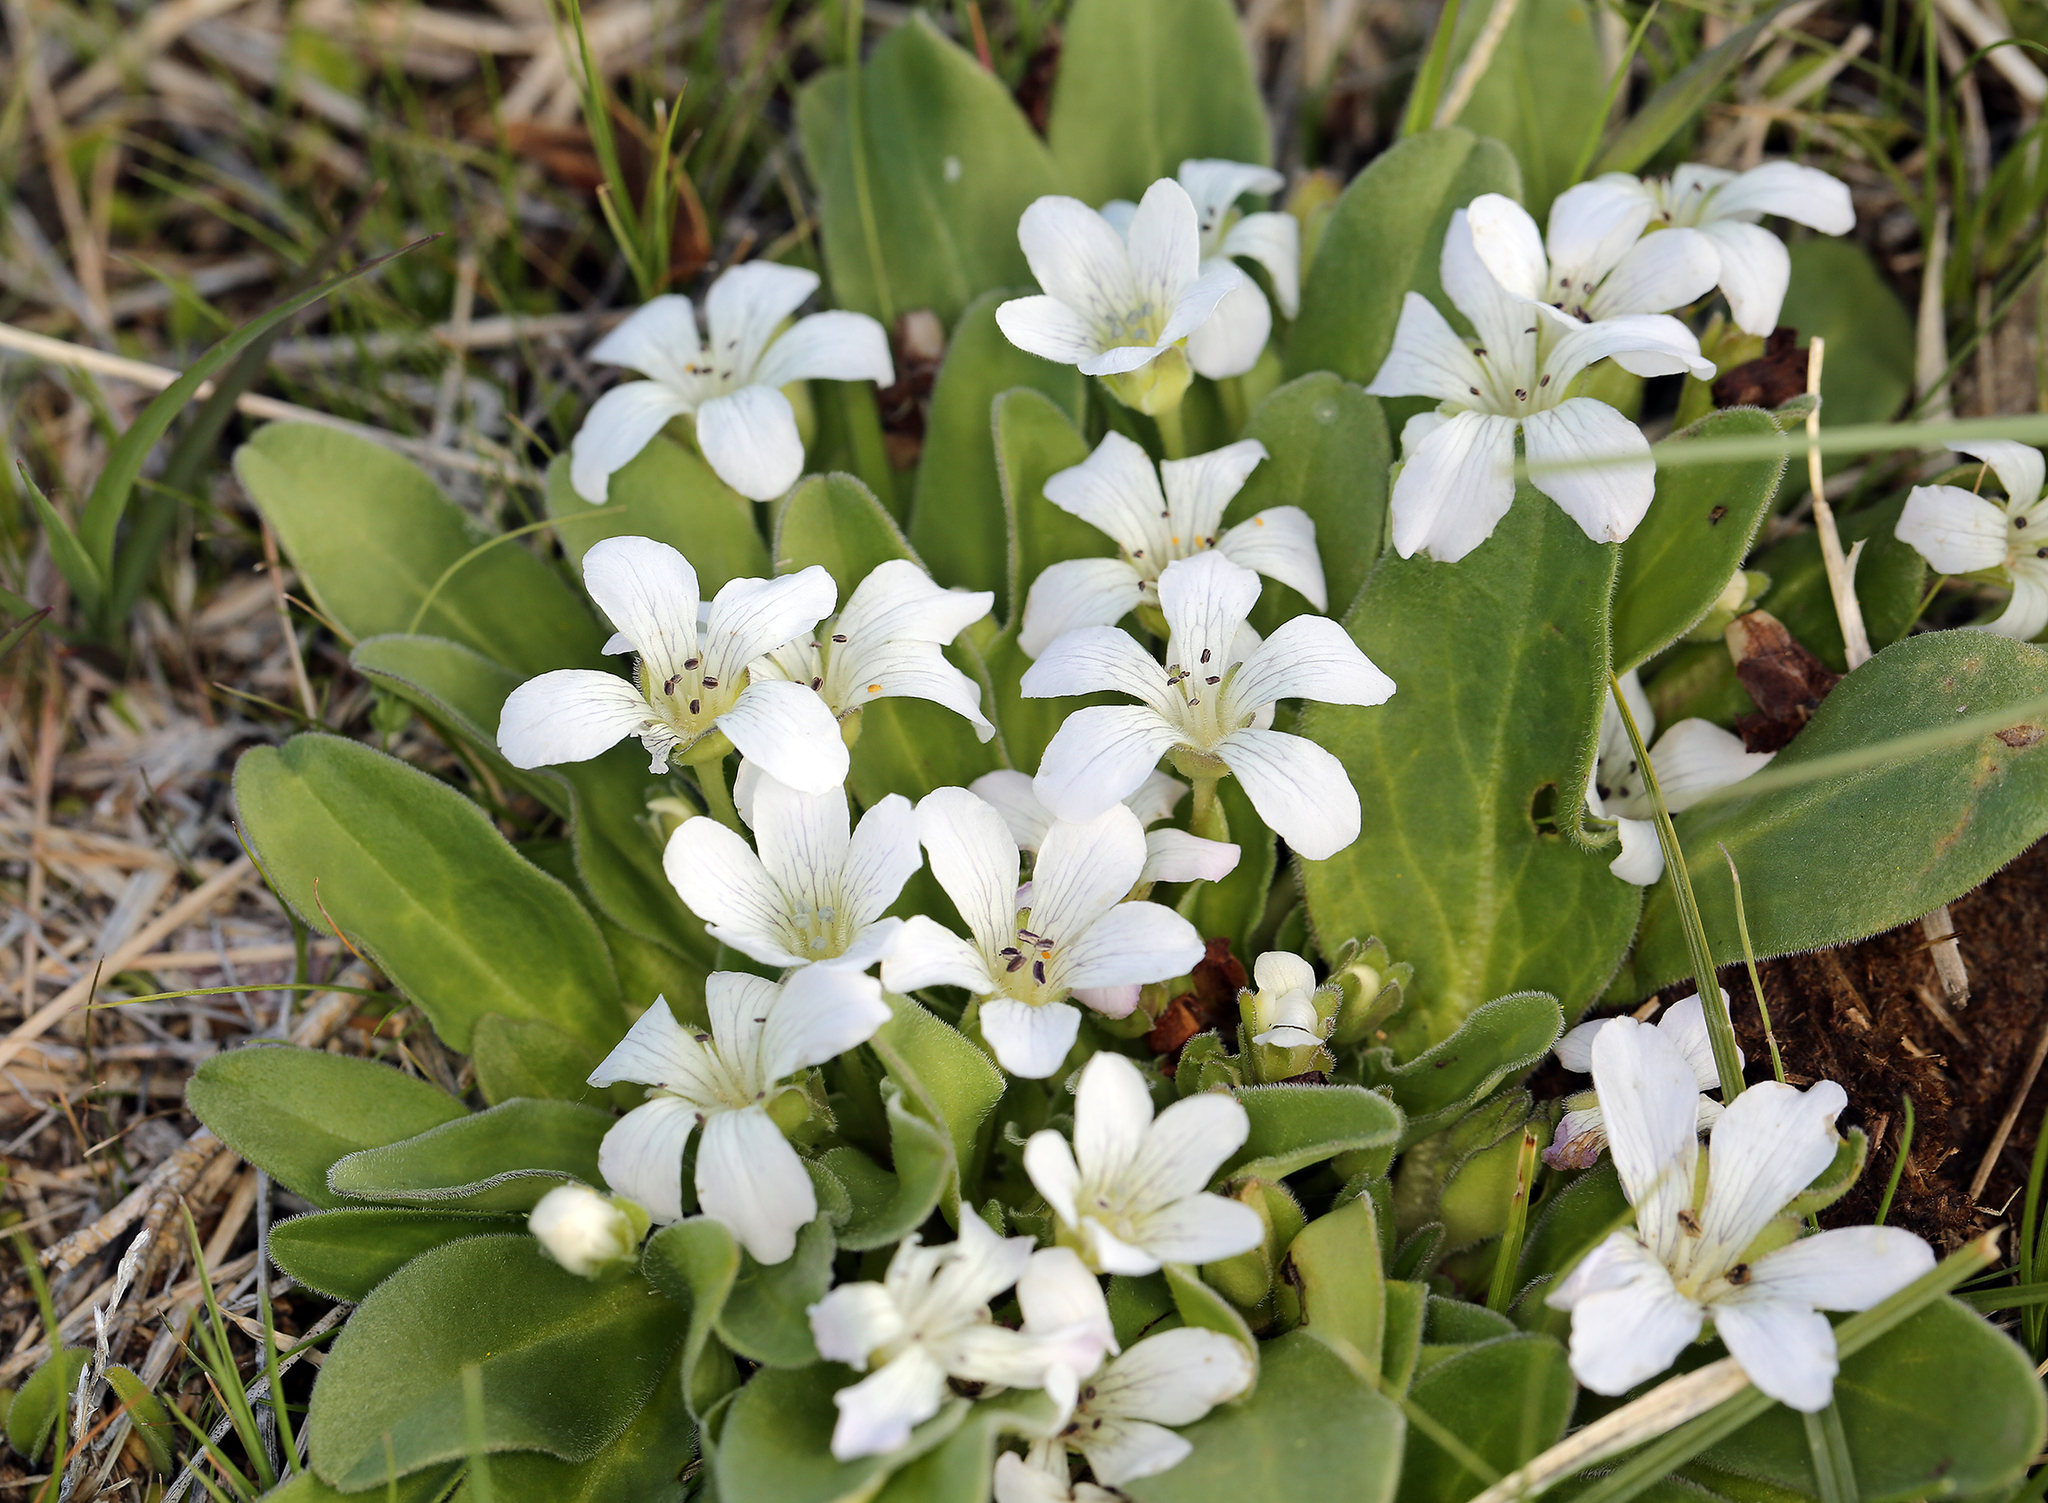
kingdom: Plantae
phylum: Tracheophyta
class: Magnoliopsida
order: Boraginales
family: Hydrophyllaceae
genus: Hesperochiron
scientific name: Hesperochiron californicus
